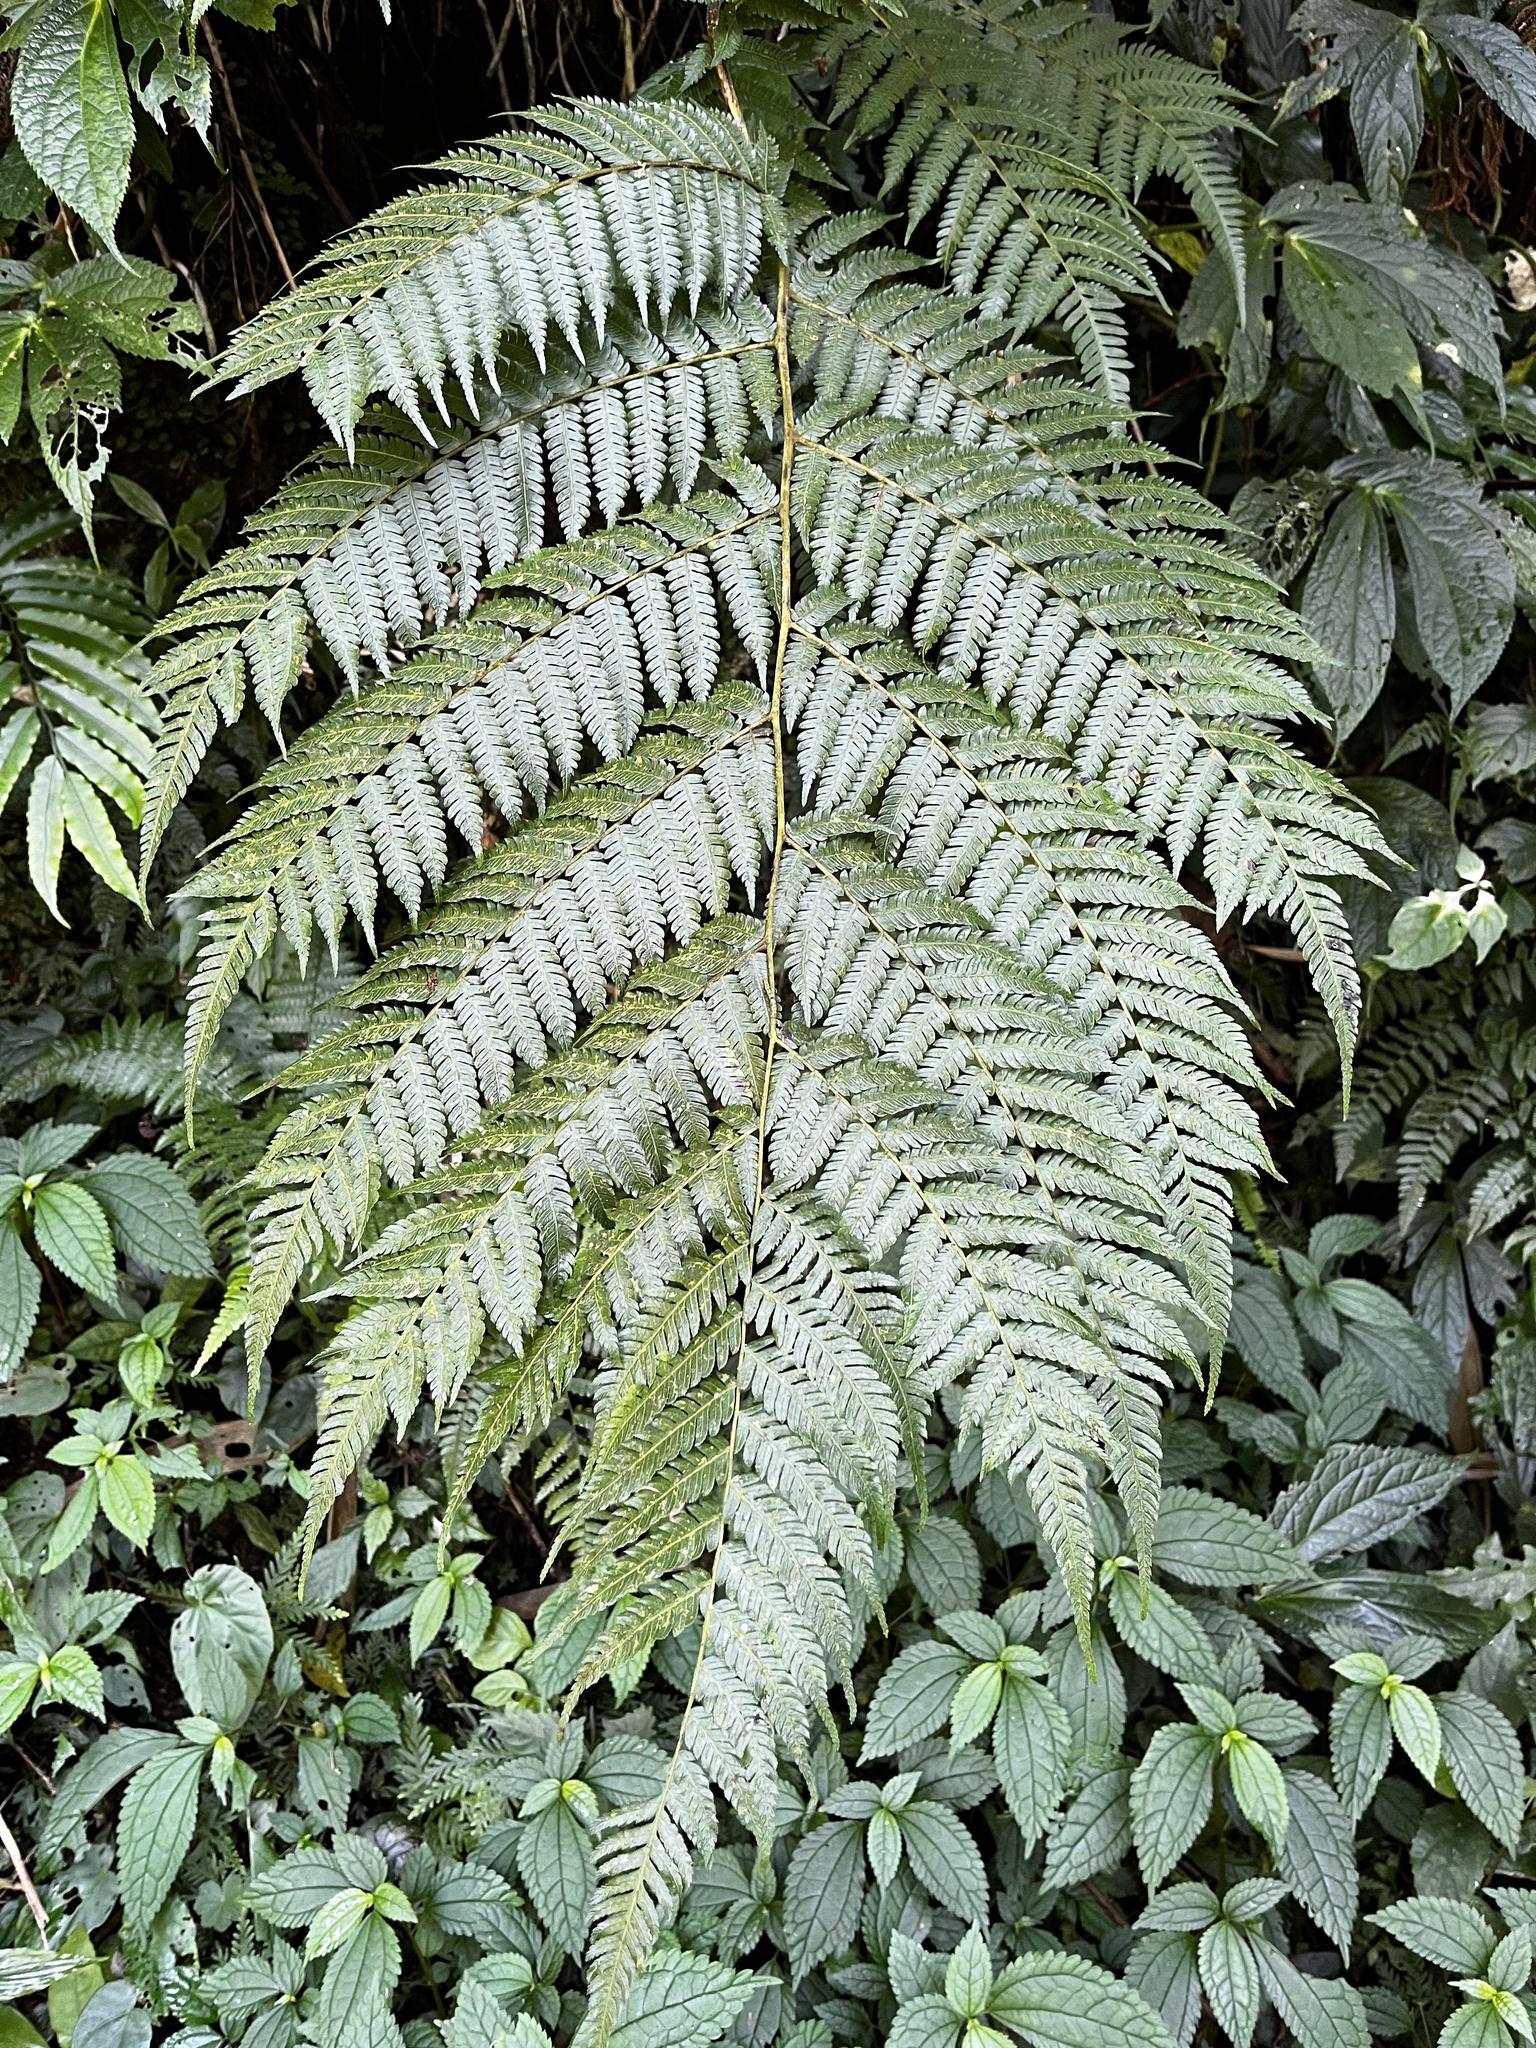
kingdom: Plantae
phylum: Tracheophyta
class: Polypodiopsida
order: Cyatheales
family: Cyatheaceae
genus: Alsophila
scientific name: Alsophila spinulosa
